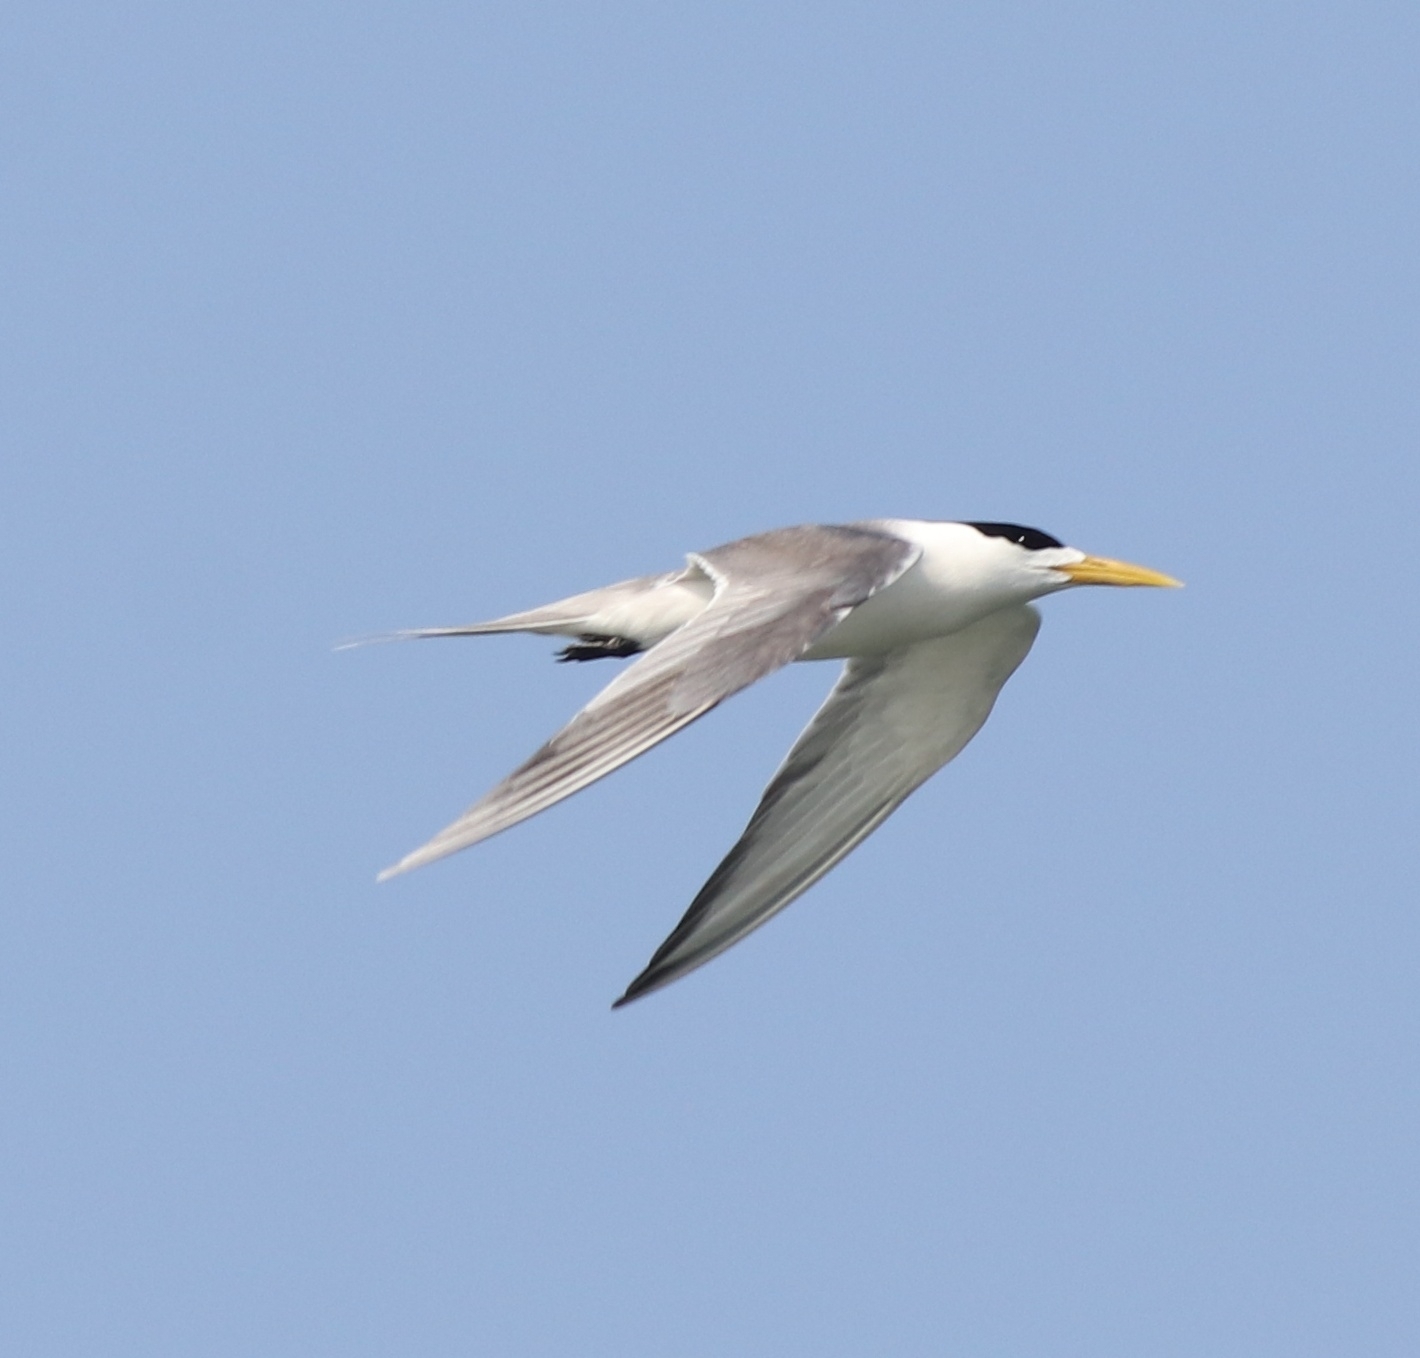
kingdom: Animalia
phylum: Chordata
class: Aves
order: Charadriiformes
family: Laridae
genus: Thalasseus
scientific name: Thalasseus bergii
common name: Greater crested tern
